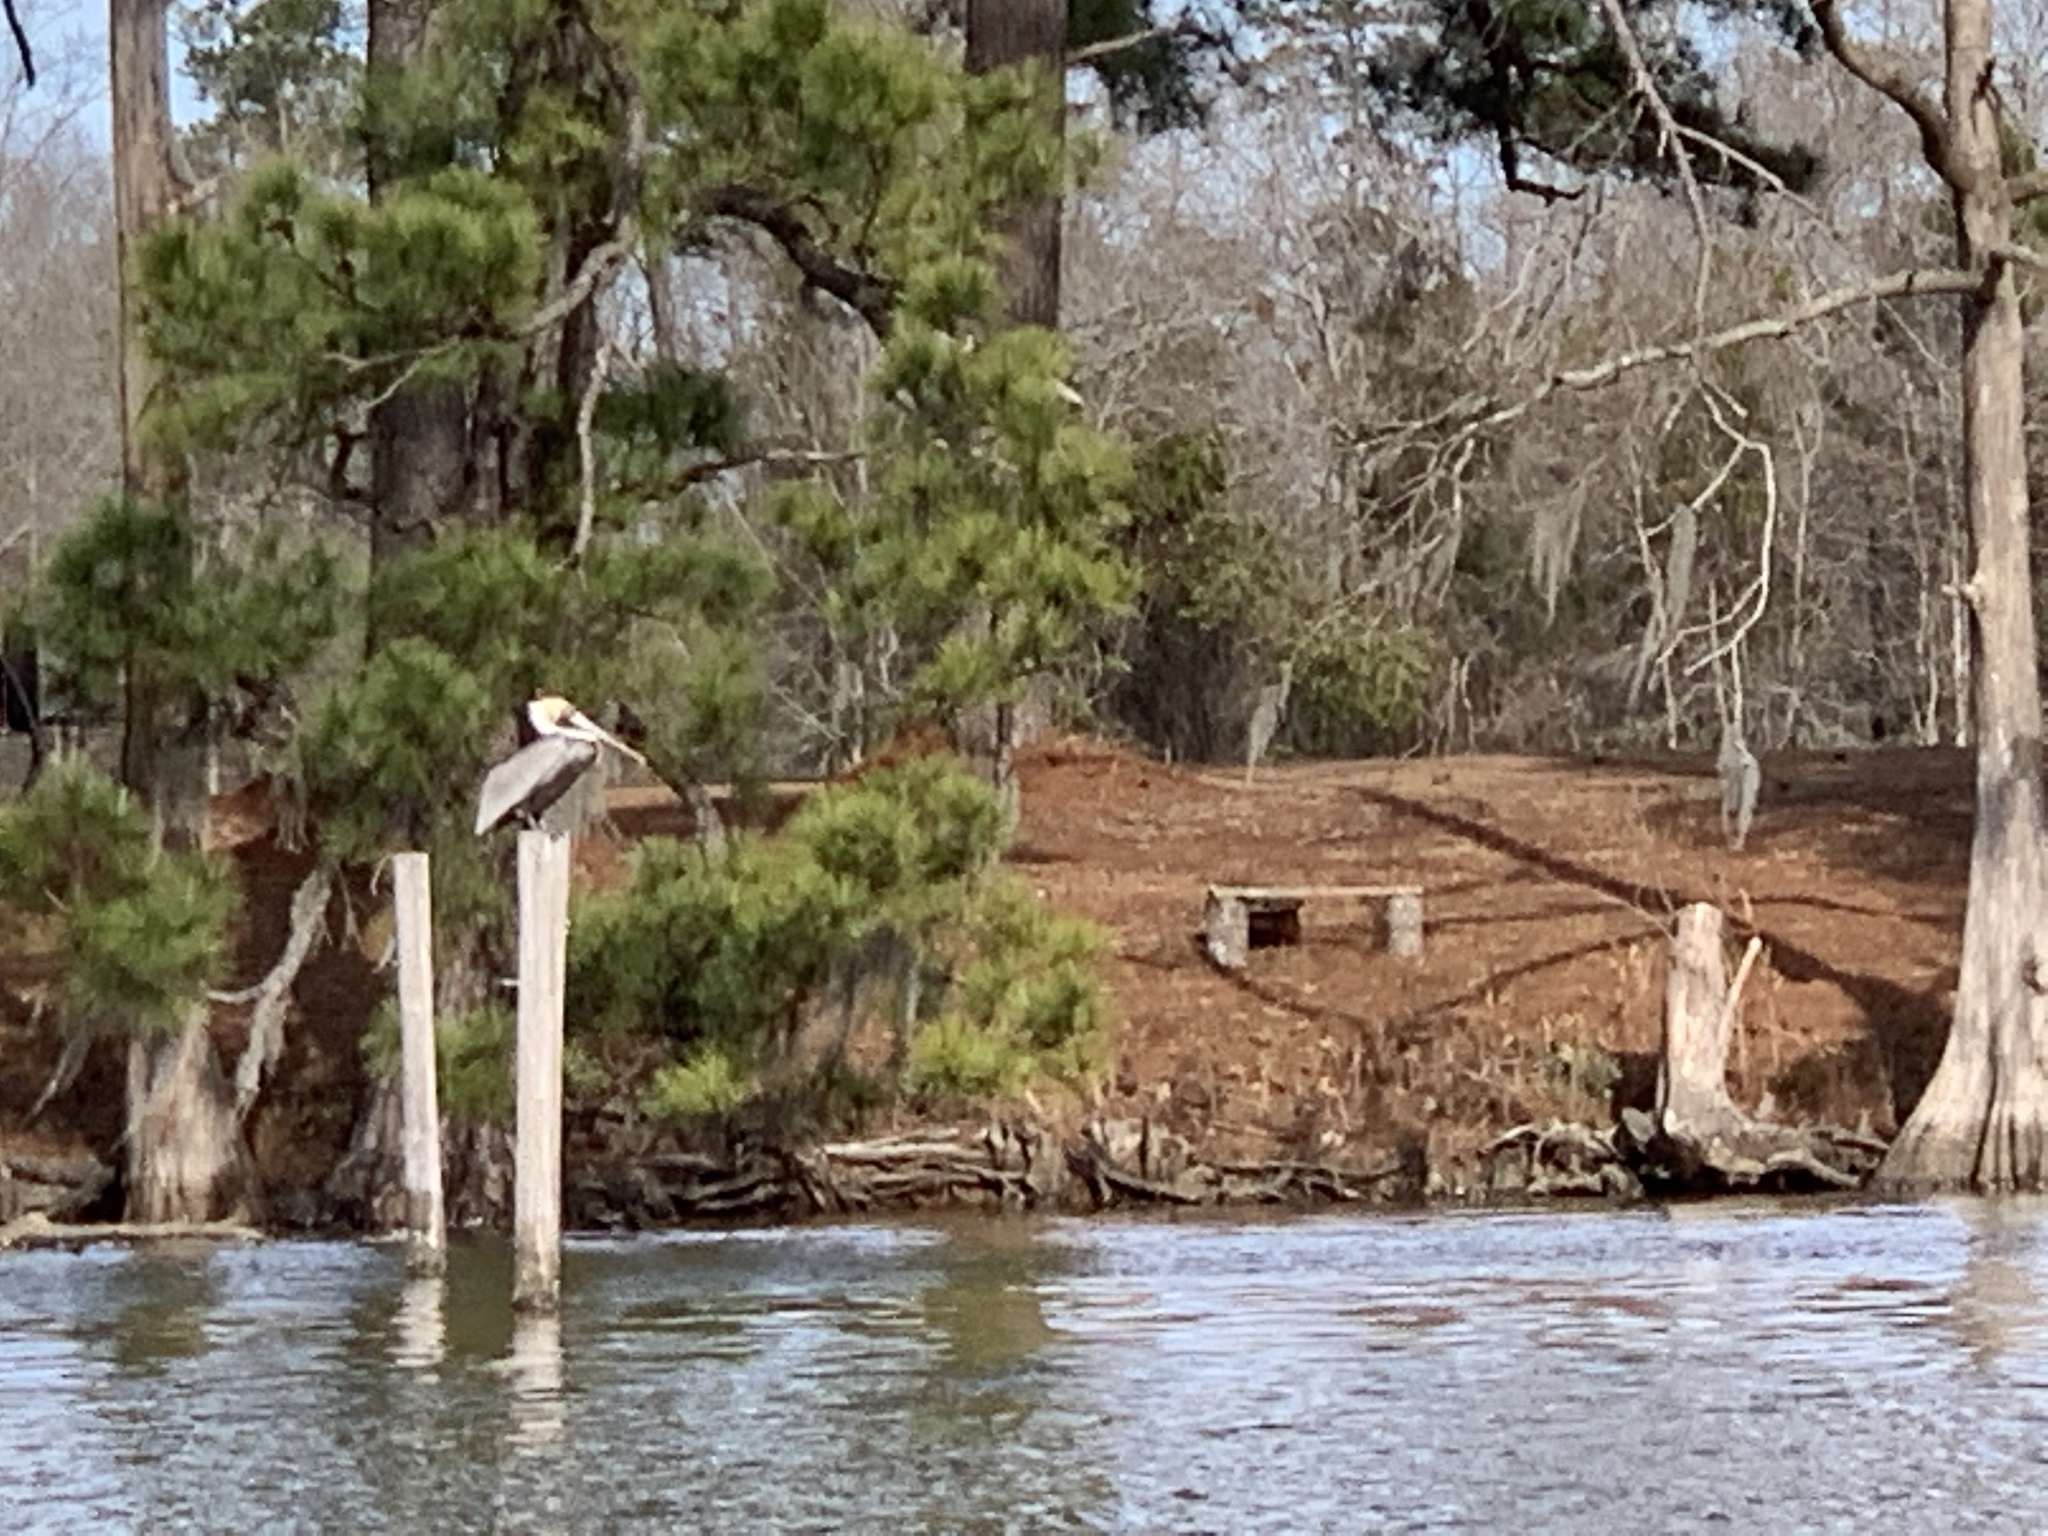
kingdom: Animalia
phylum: Chordata
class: Aves
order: Pelecaniformes
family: Pelecanidae
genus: Pelecanus
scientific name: Pelecanus occidentalis
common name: Brown pelican
